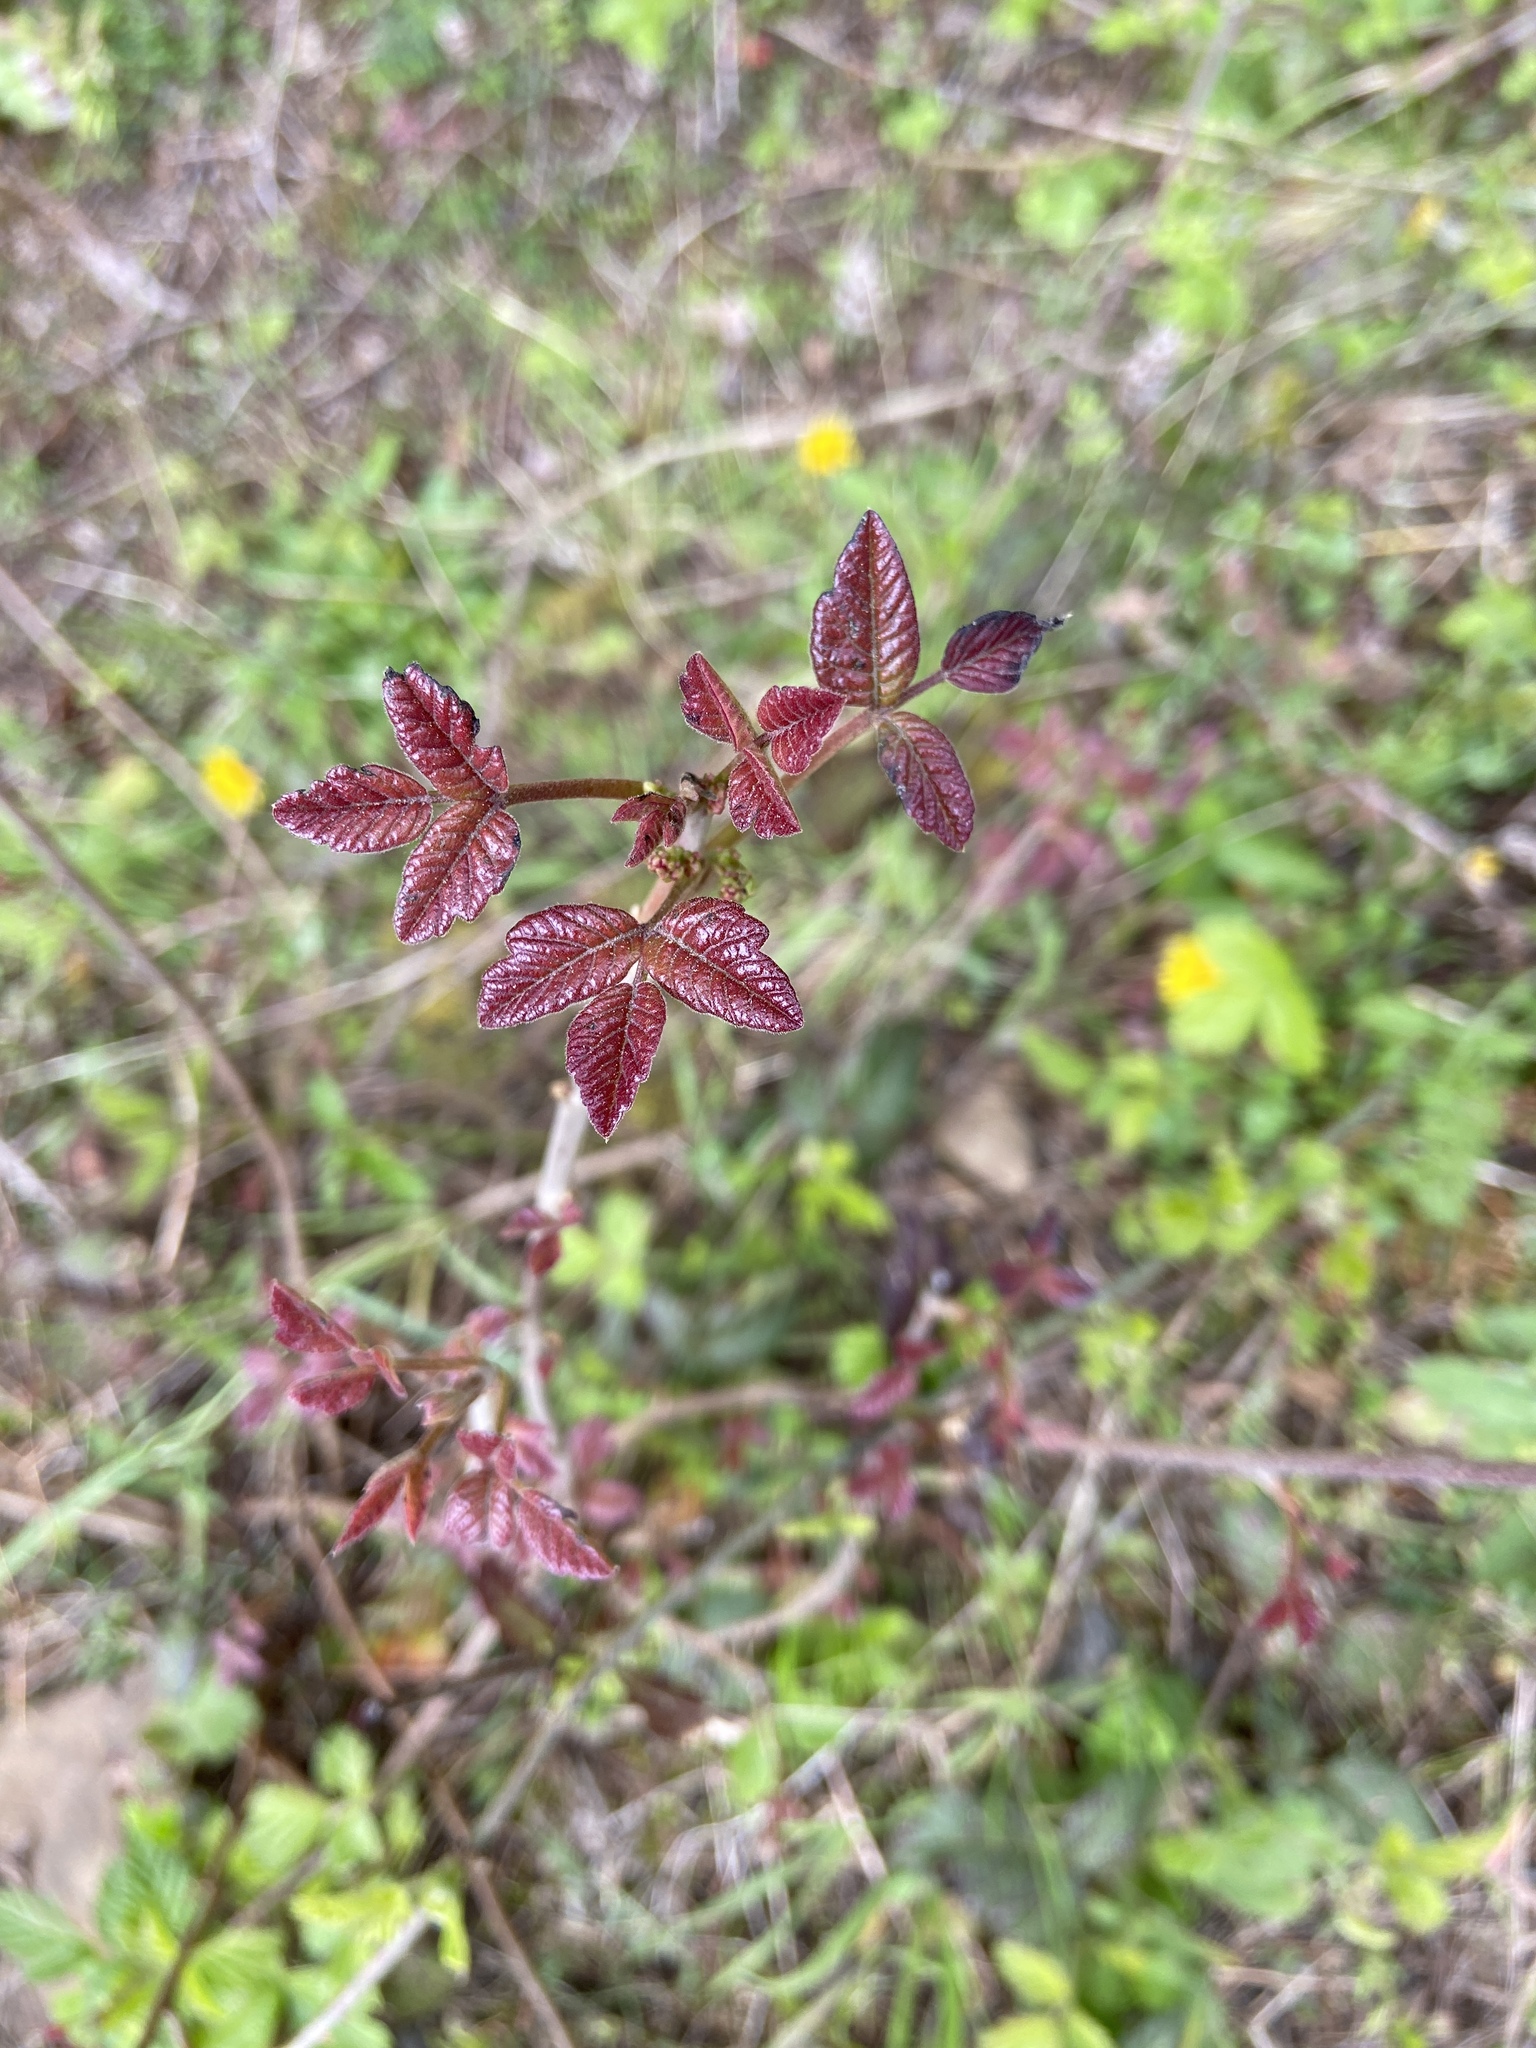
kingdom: Plantae
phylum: Tracheophyta
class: Magnoliopsida
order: Sapindales
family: Anacardiaceae
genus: Toxicodendron
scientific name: Toxicodendron diversilobum
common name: Pacific poison-oak
